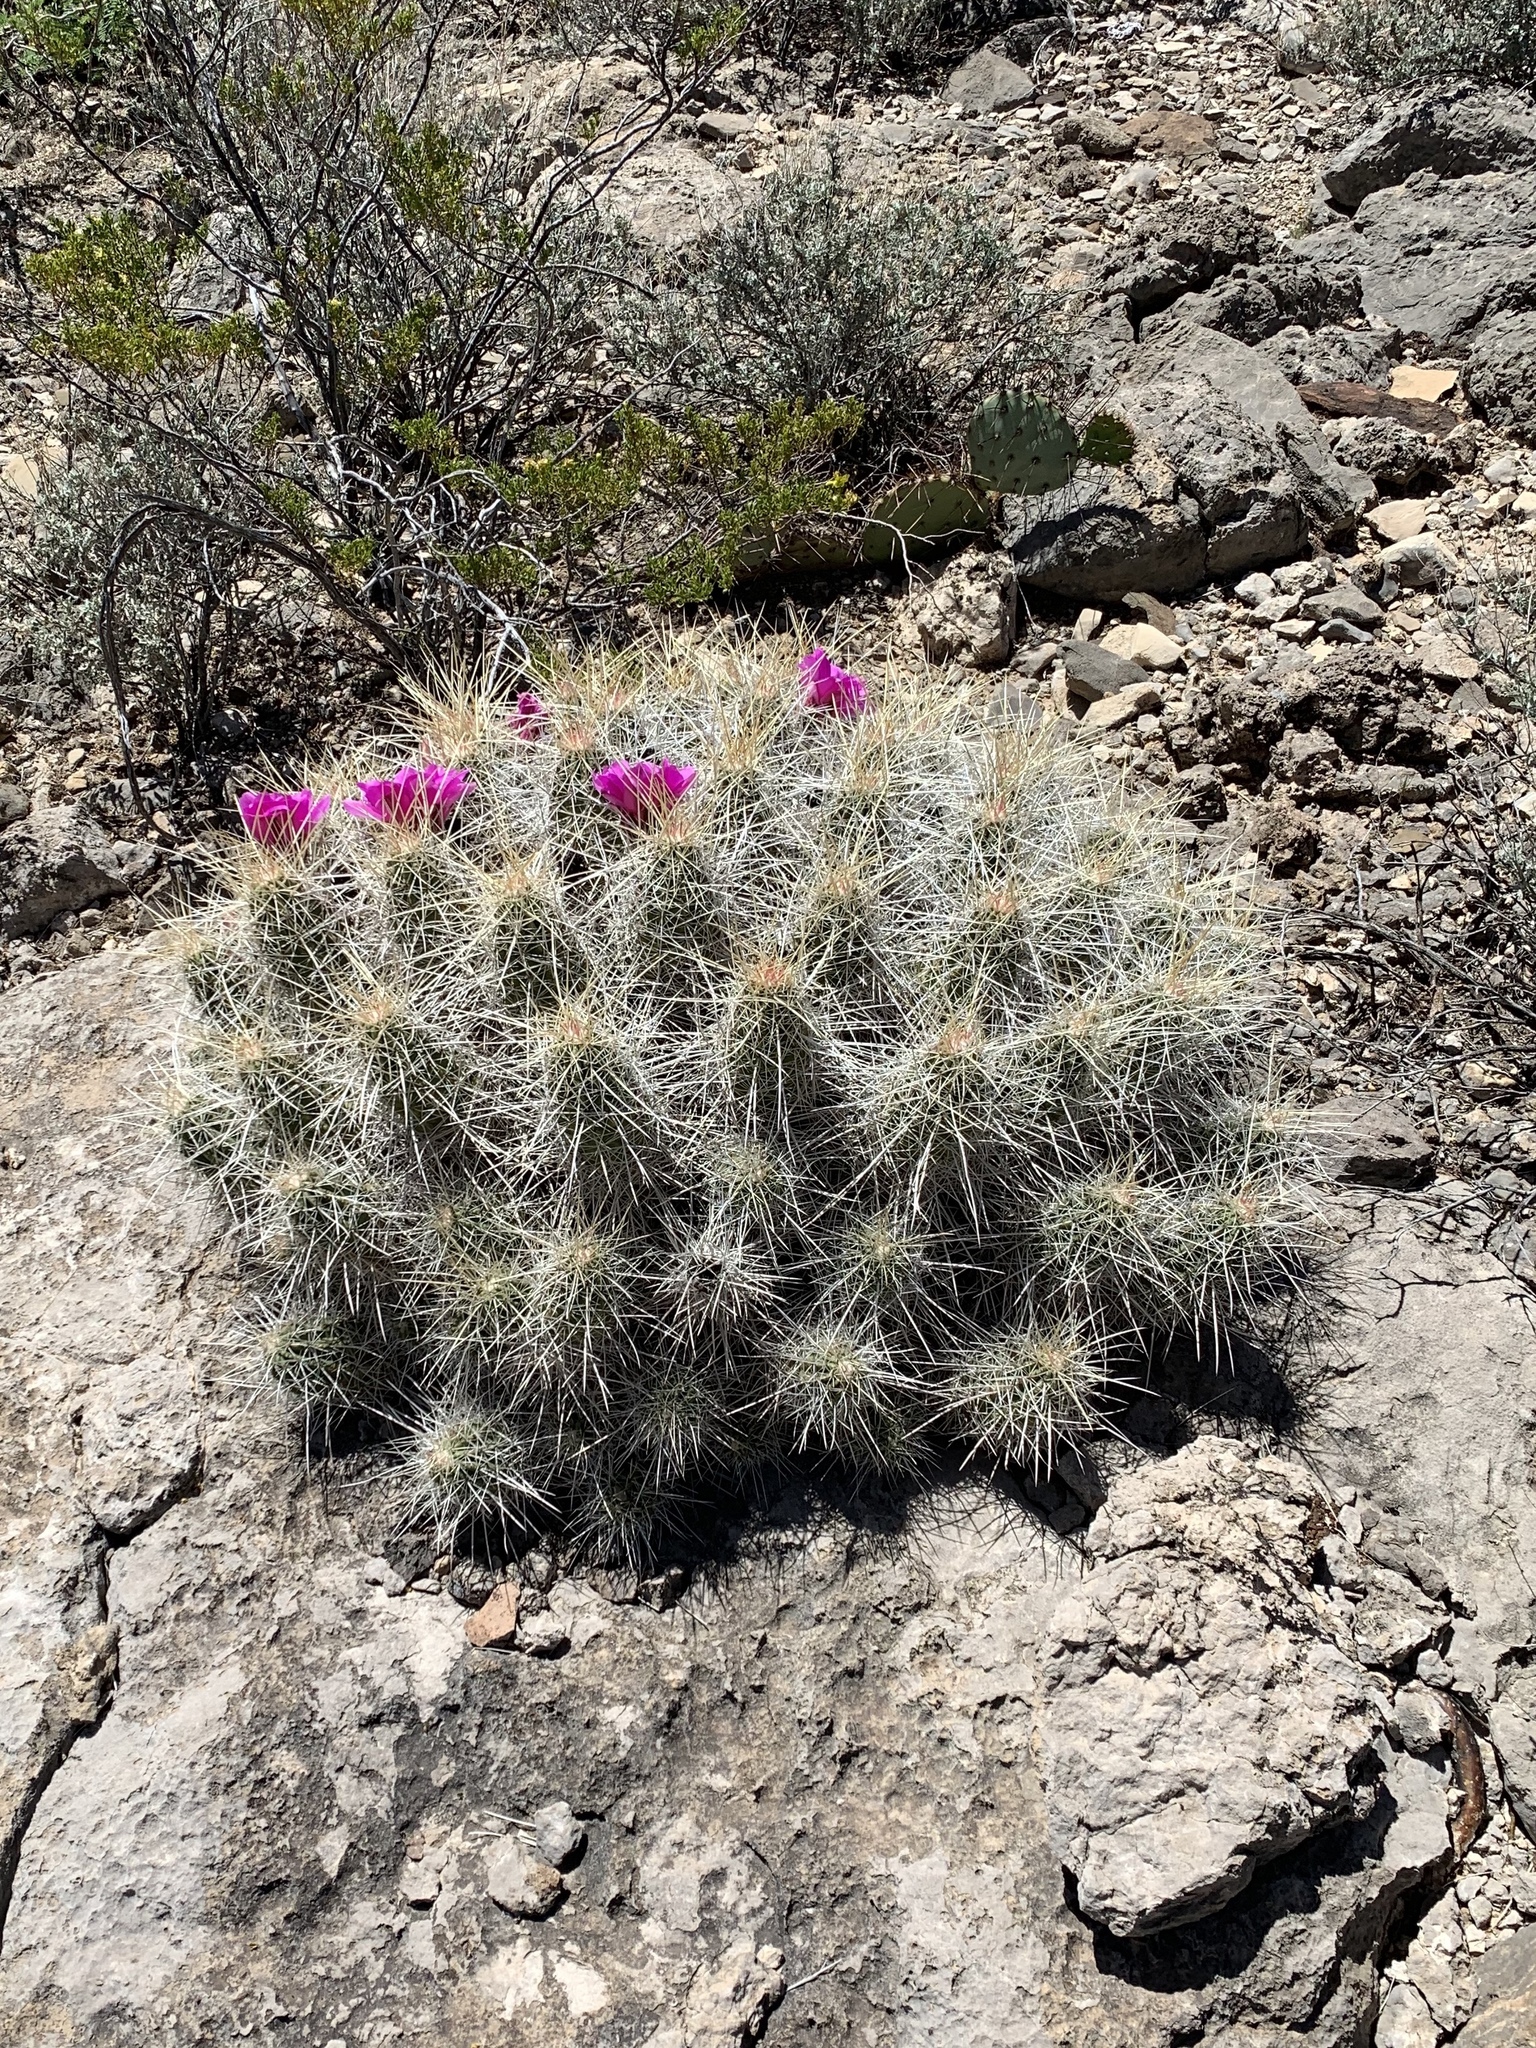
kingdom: Plantae
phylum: Tracheophyta
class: Magnoliopsida
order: Caryophyllales
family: Cactaceae
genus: Echinocereus
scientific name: Echinocereus stramineus
